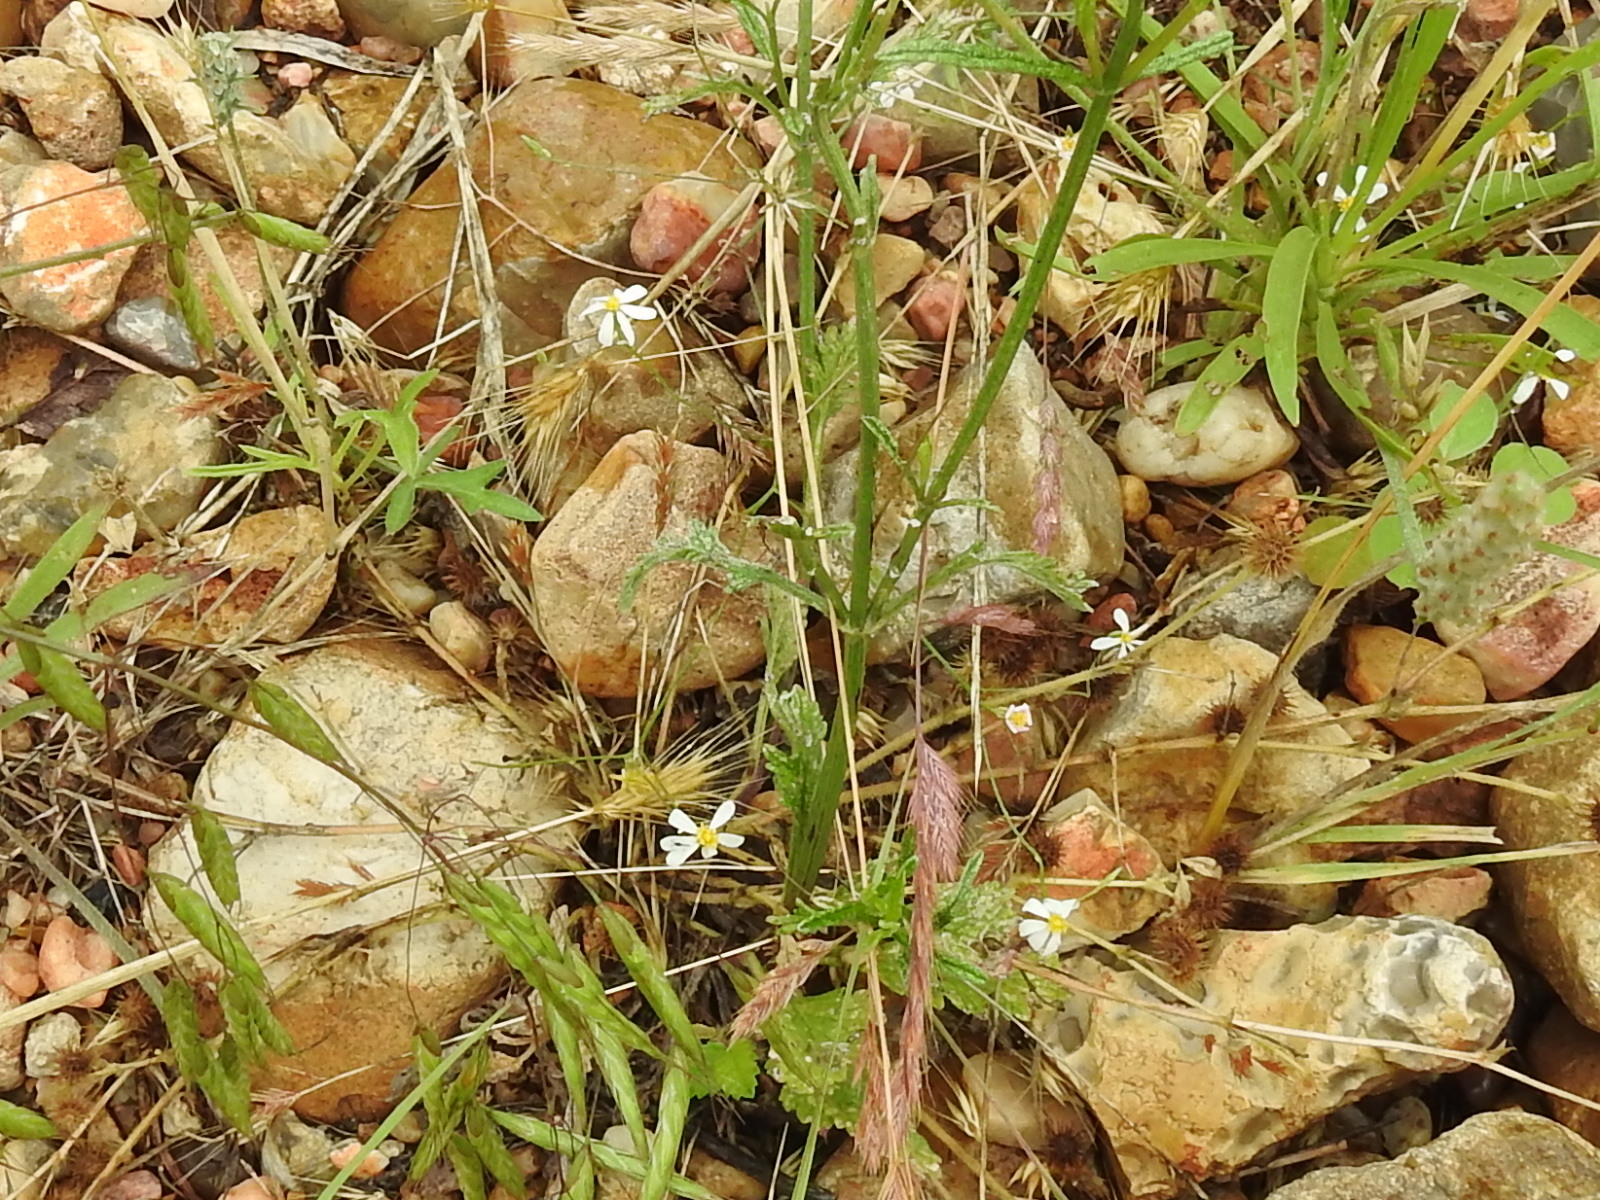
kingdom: Plantae
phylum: Tracheophyta
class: Magnoliopsida
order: Asterales
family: Asteraceae
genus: Chaetopappa
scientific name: Chaetopappa asteroides
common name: Tiny lazy daisy
